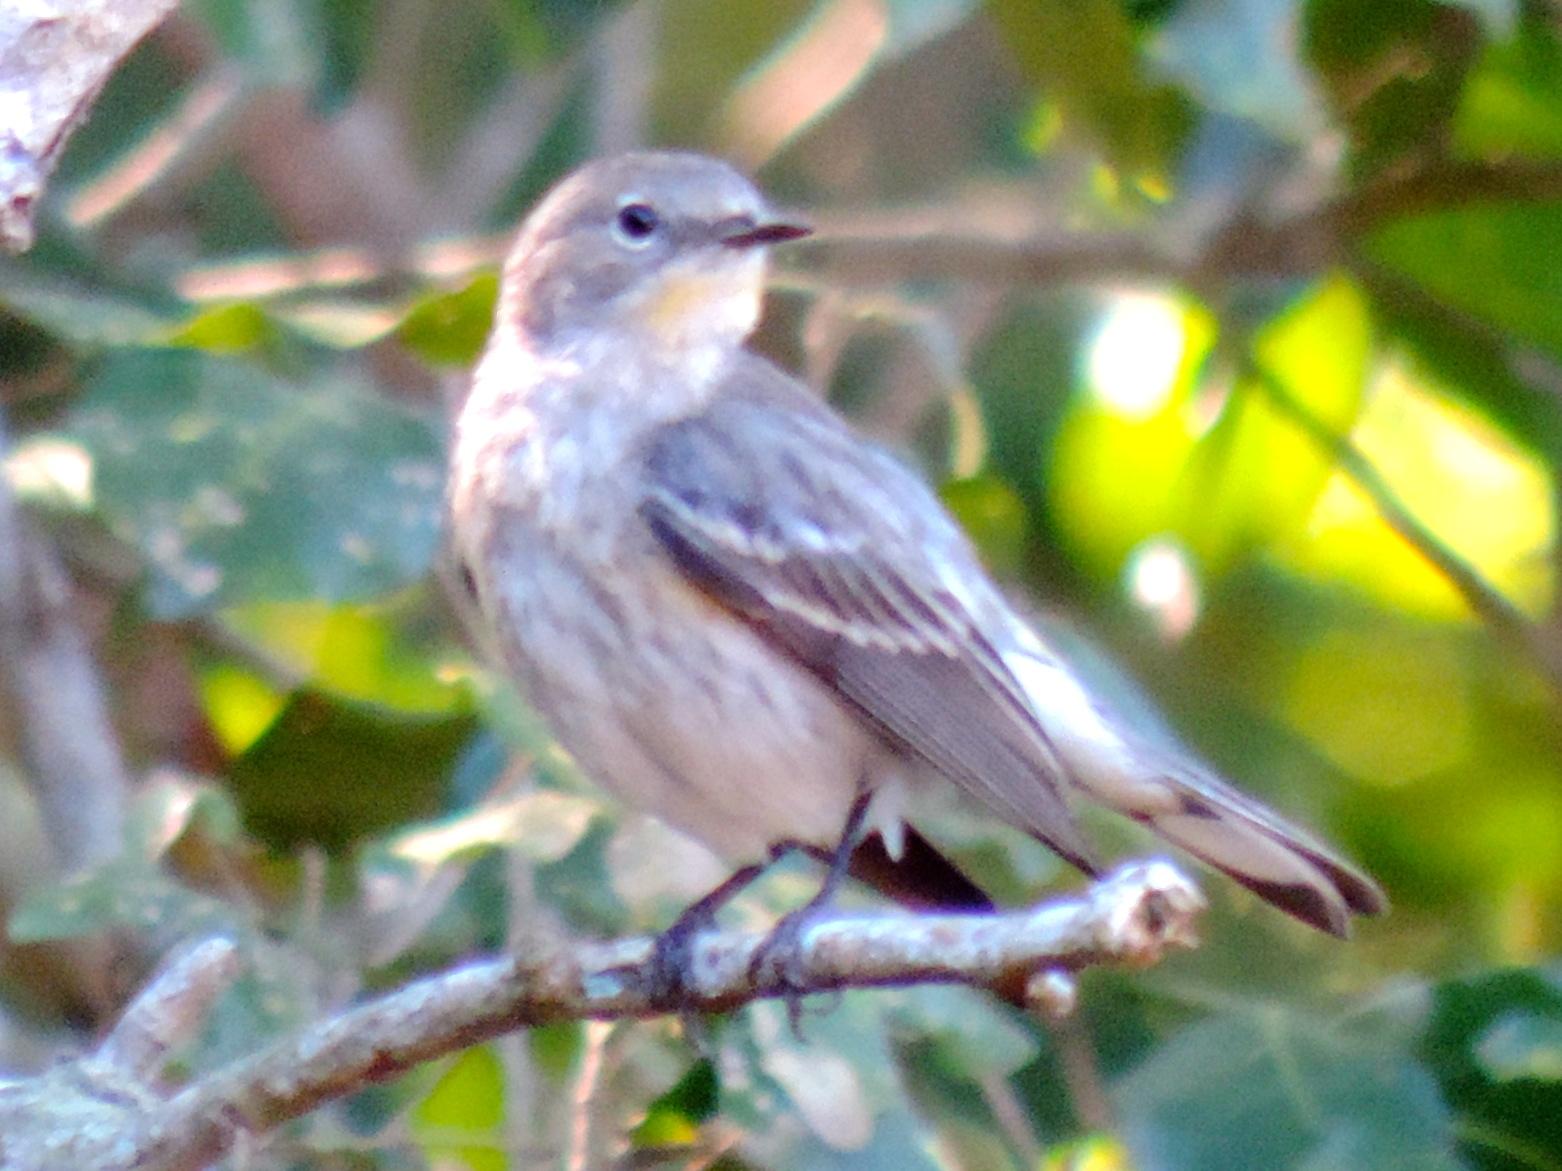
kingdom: Animalia
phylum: Chordata
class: Aves
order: Passeriformes
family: Parulidae
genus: Setophaga
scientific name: Setophaga coronata
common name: Myrtle warbler
